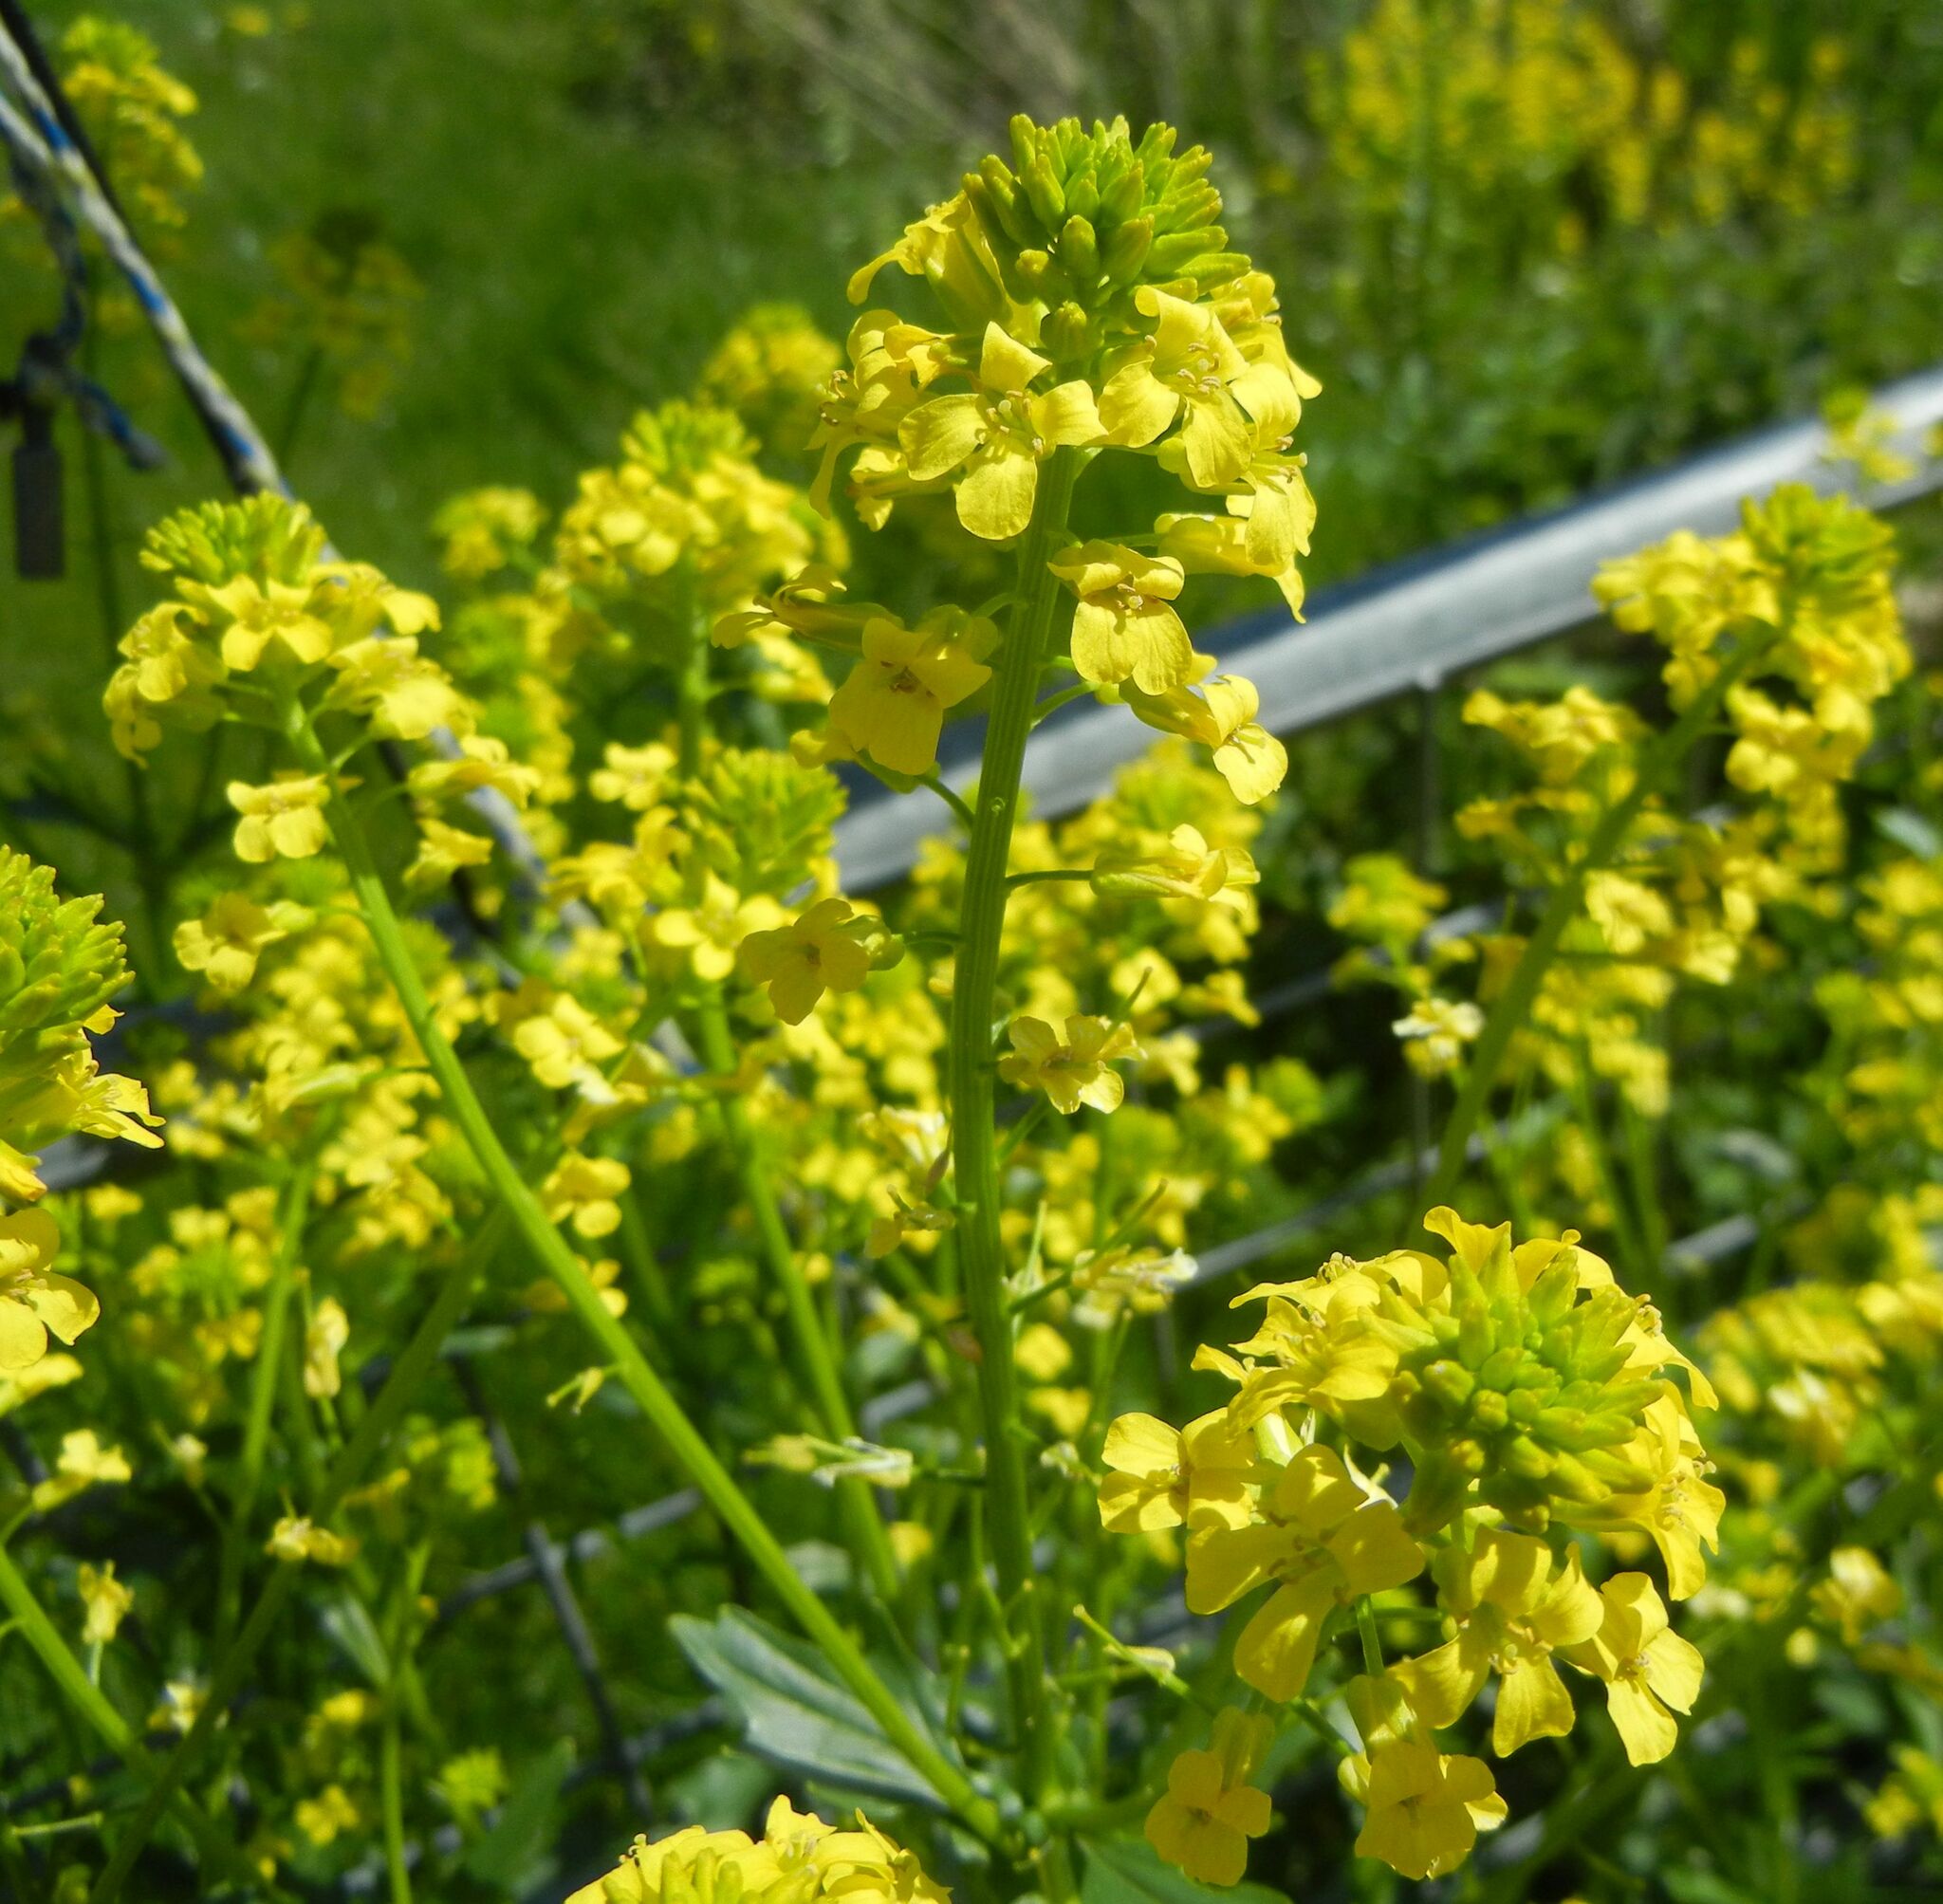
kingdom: Plantae
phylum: Tracheophyta
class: Magnoliopsida
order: Brassicales
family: Brassicaceae
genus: Barbarea
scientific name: Barbarea vulgaris
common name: Cressy-greens
